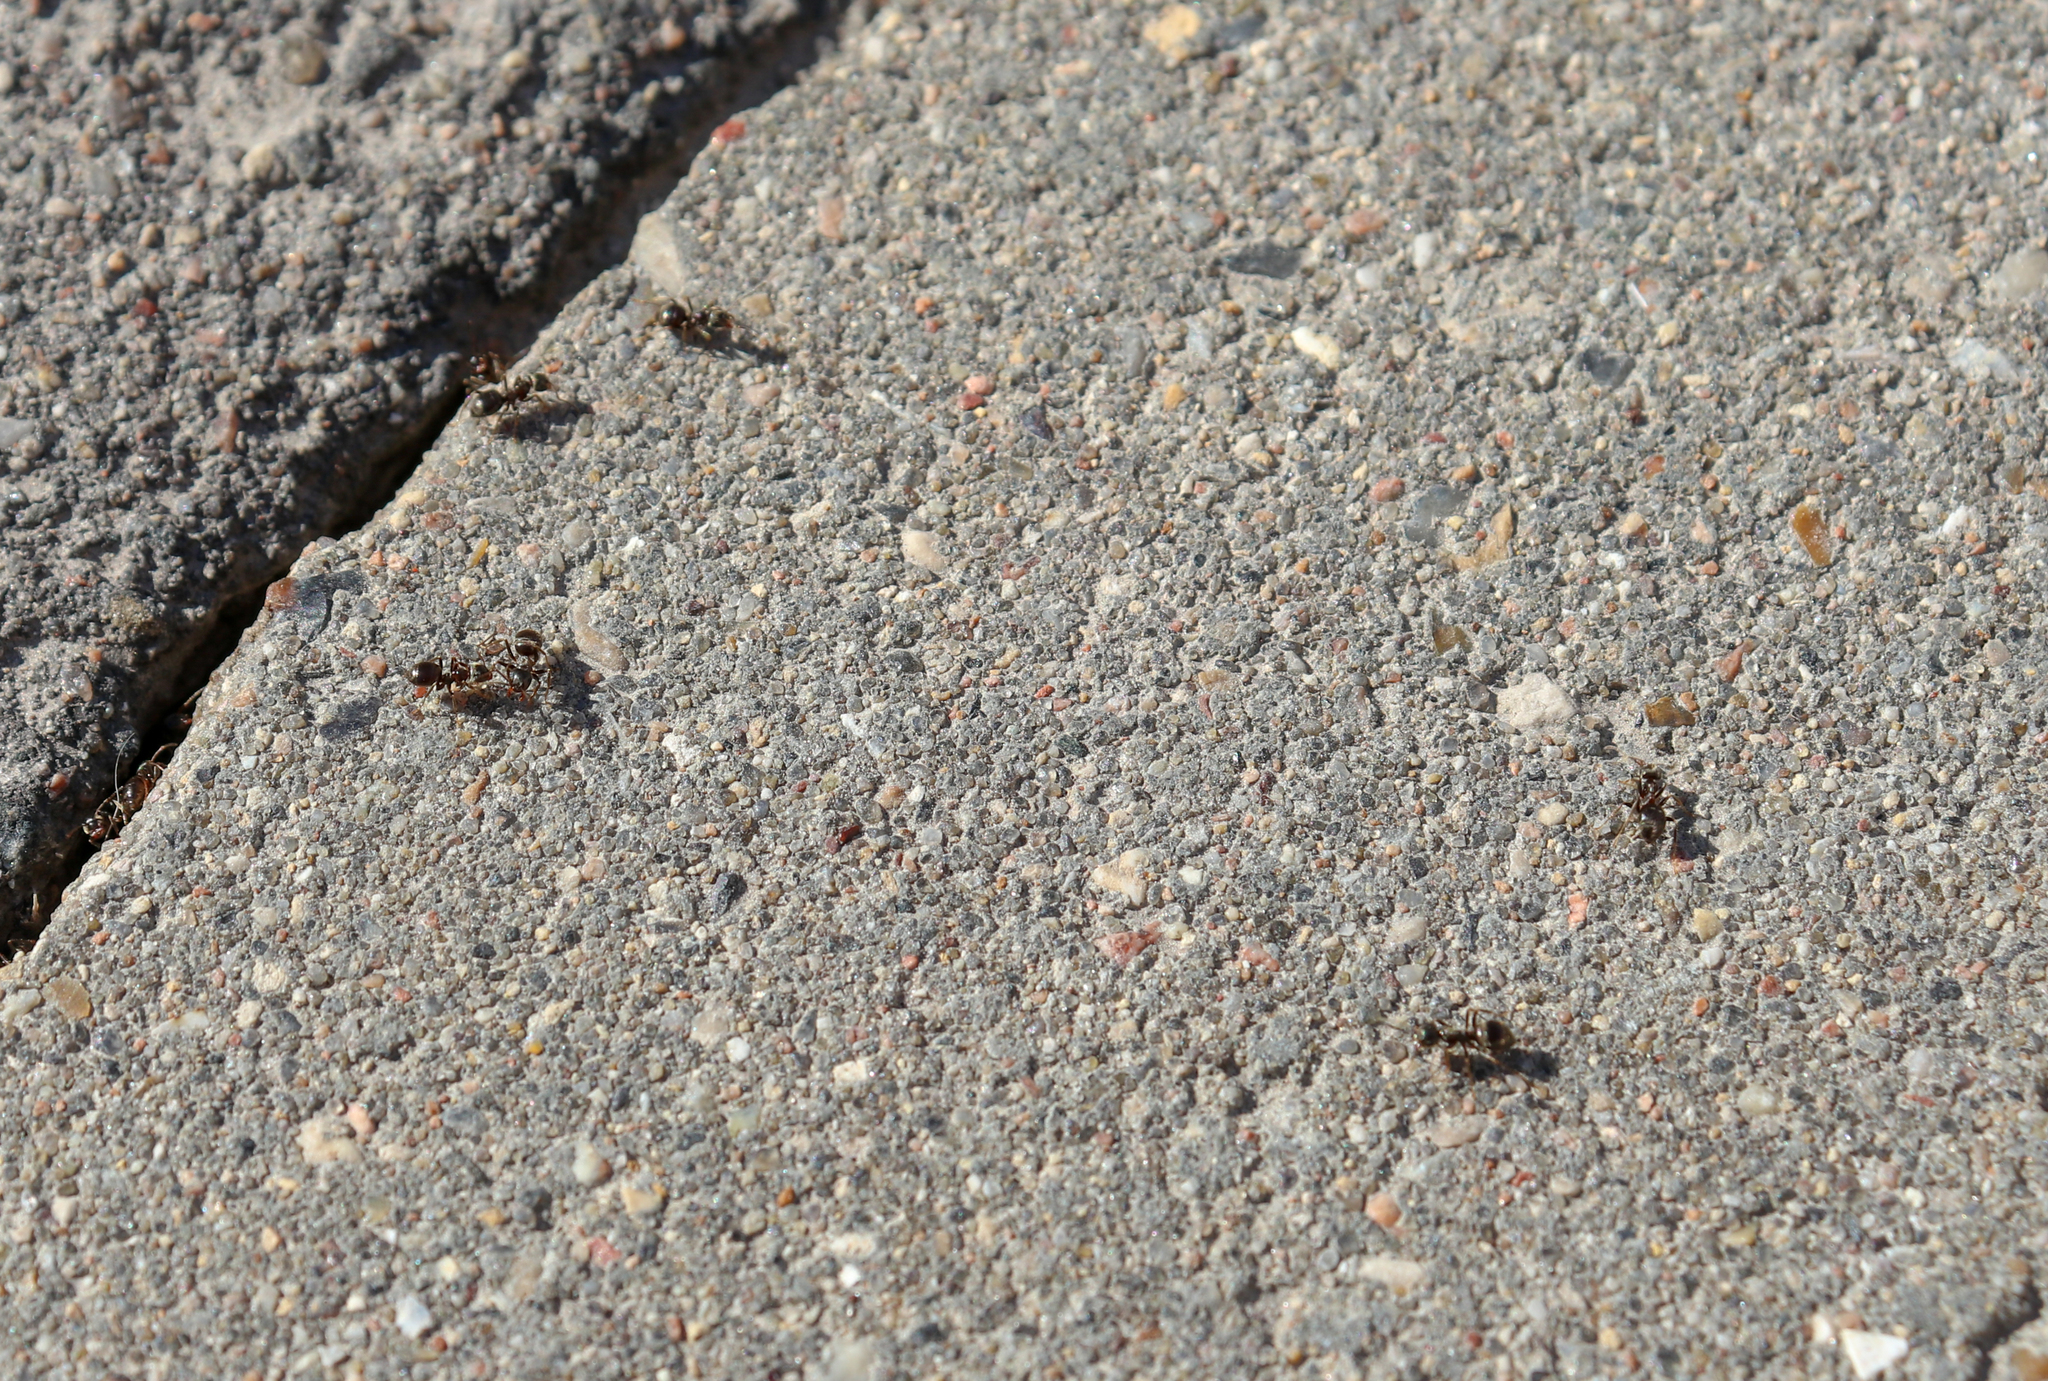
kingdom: Animalia
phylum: Arthropoda
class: Insecta
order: Hymenoptera
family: Formicidae
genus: Lasius
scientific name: Lasius
